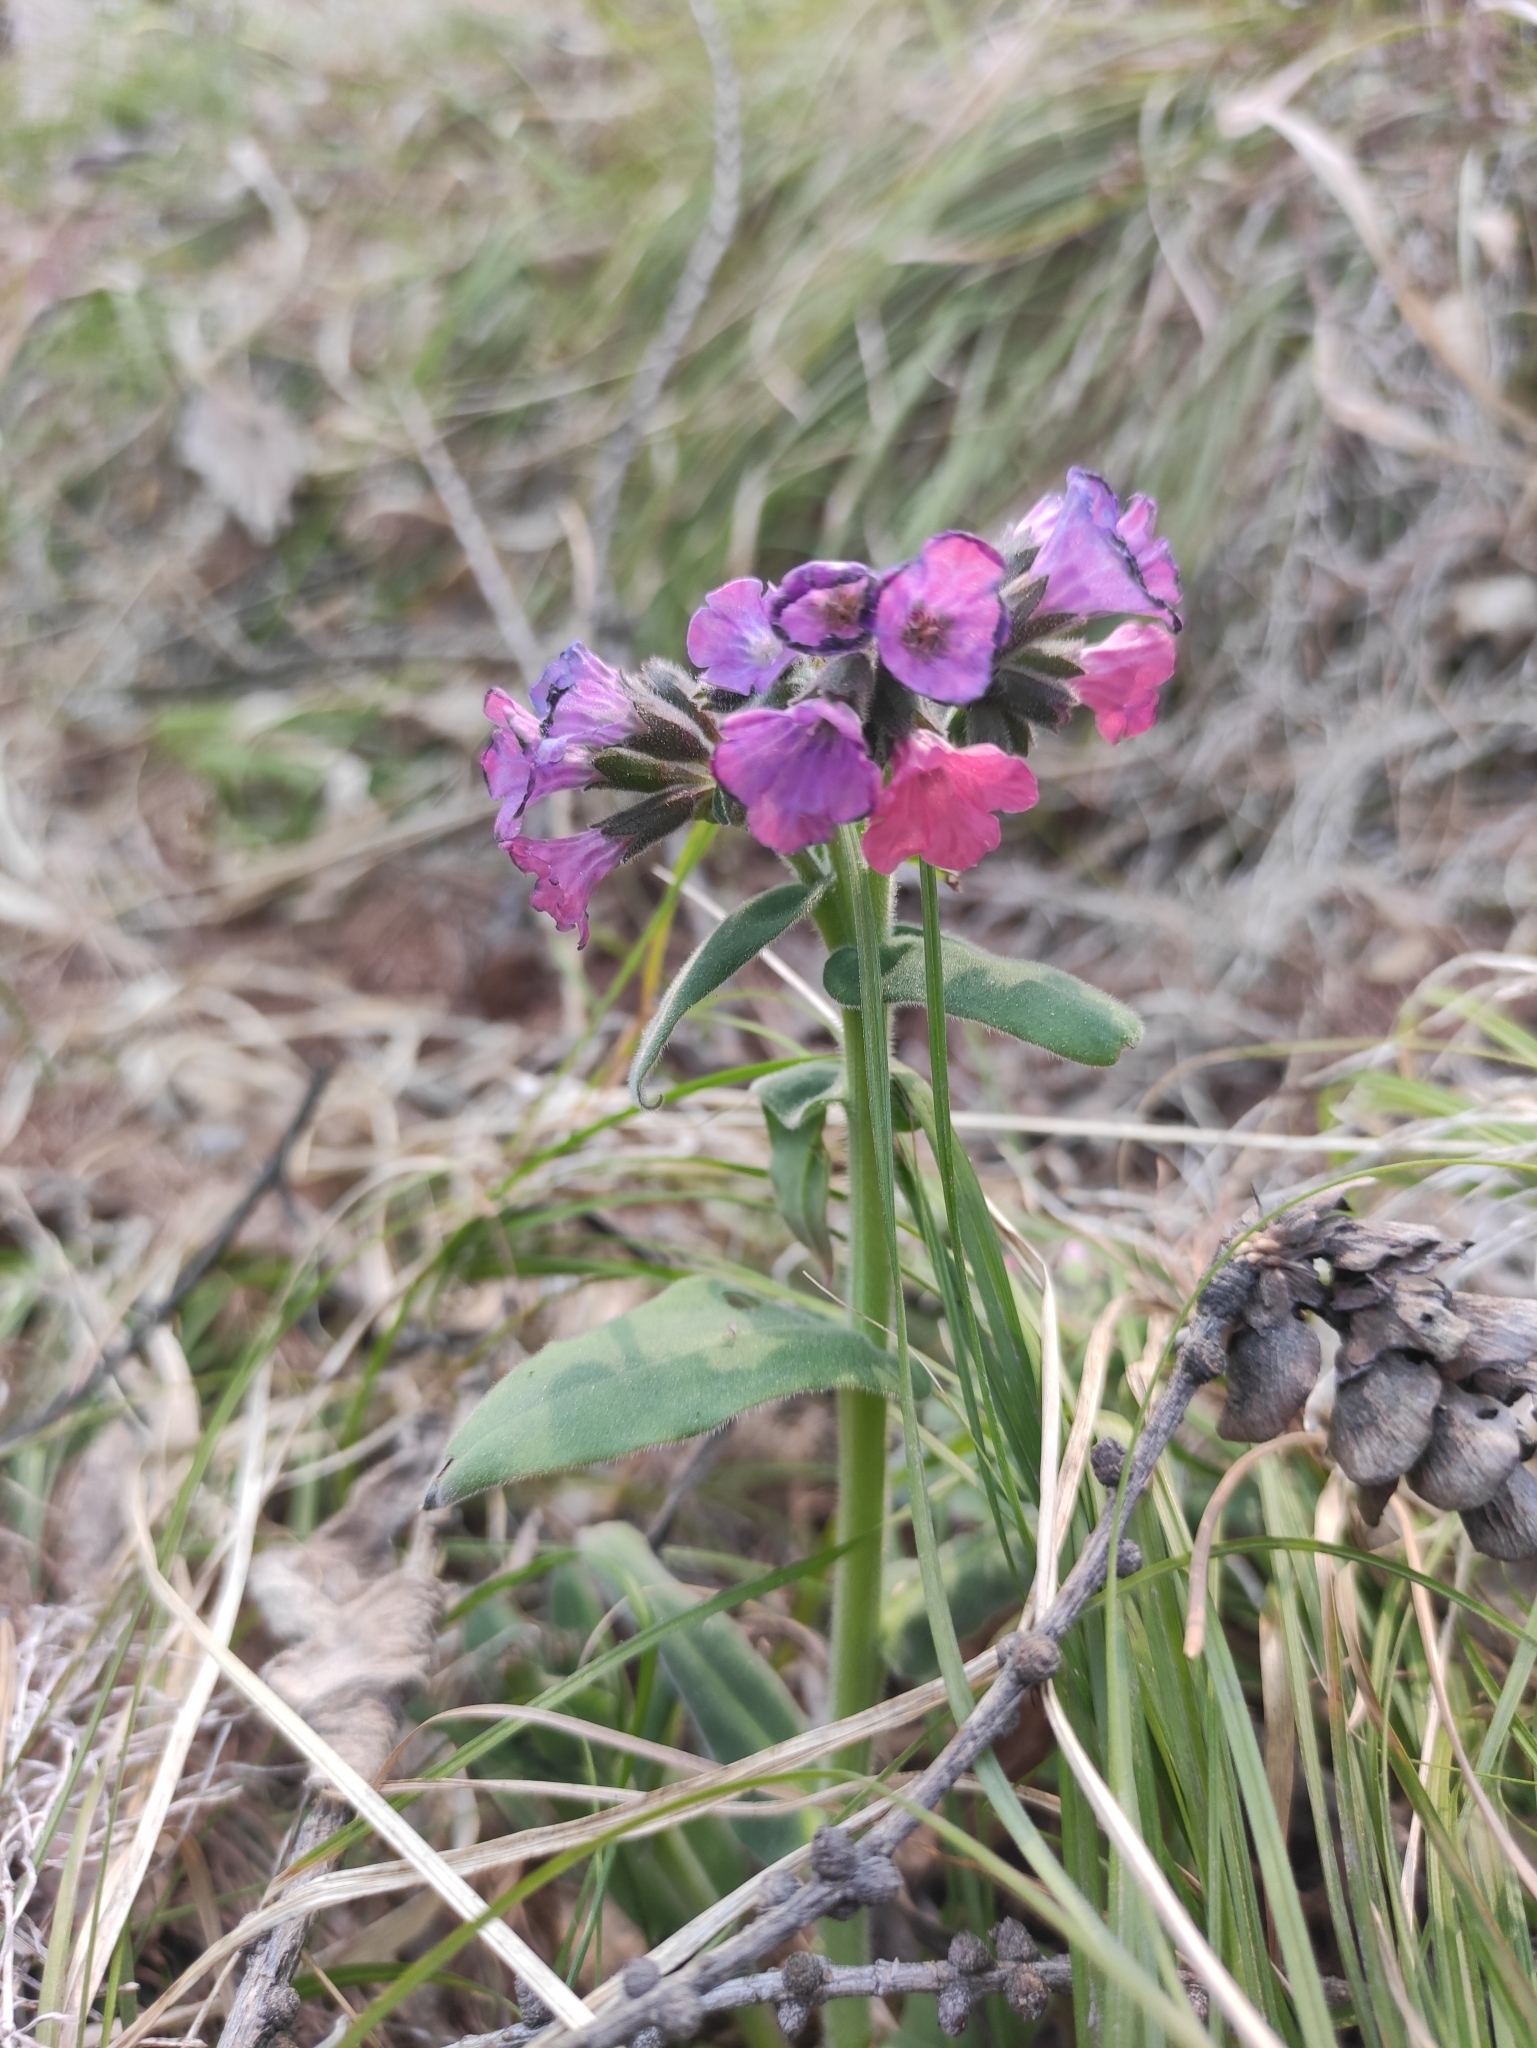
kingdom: Plantae
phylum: Tracheophyta
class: Magnoliopsida
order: Boraginales
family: Boraginaceae
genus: Pulmonaria
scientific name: Pulmonaria mollis
